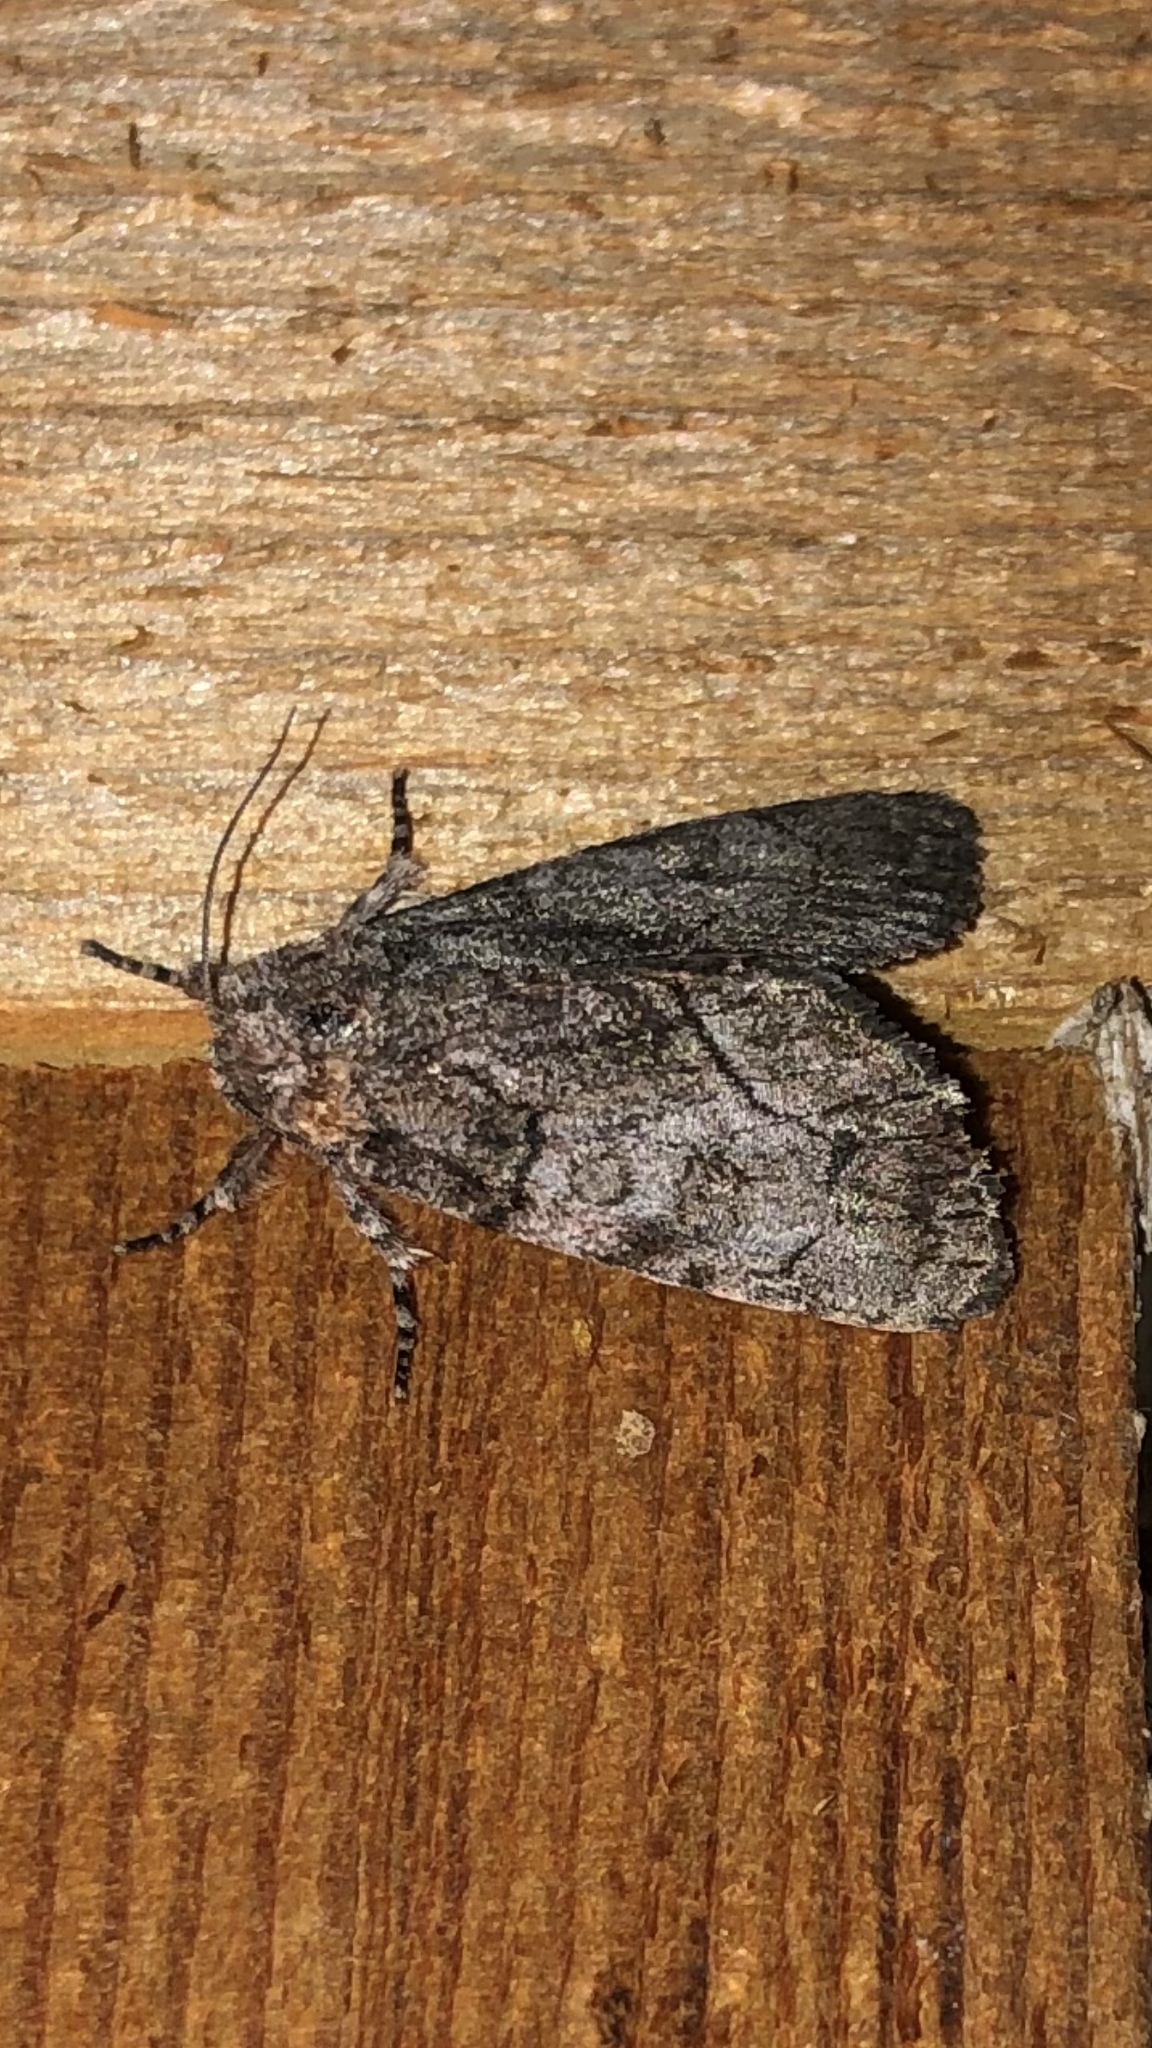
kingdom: Animalia
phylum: Arthropoda
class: Insecta
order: Lepidoptera
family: Noctuidae
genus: Raphia
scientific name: Raphia frater
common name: Brother
